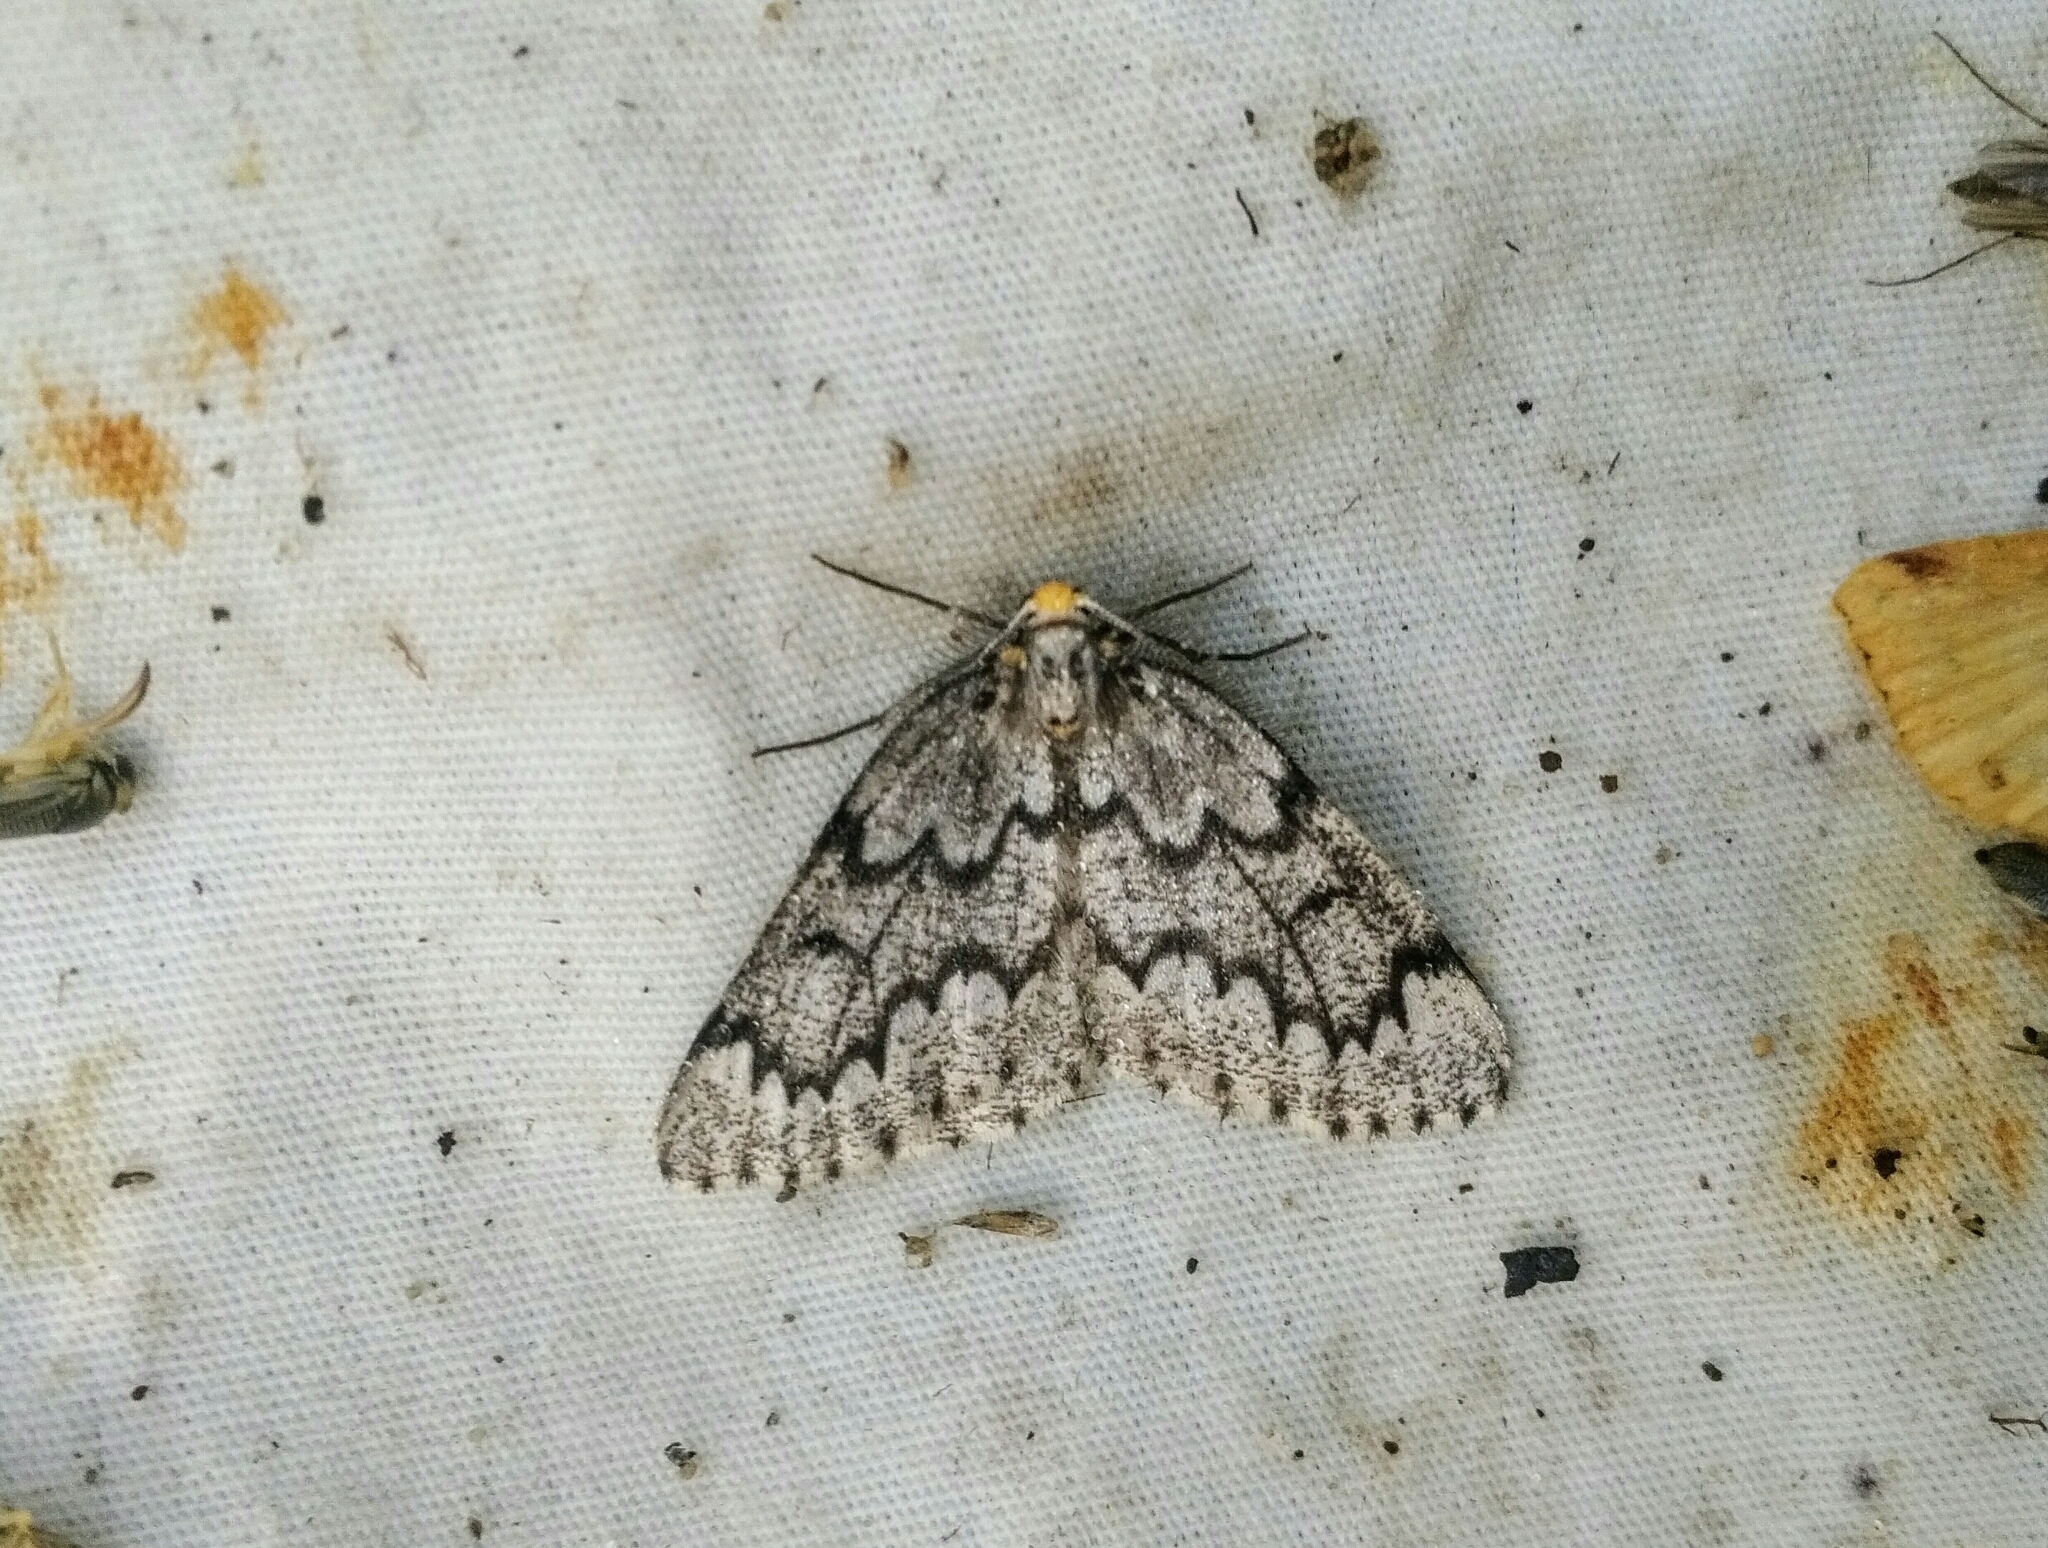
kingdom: Animalia
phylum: Arthropoda
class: Insecta
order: Lepidoptera
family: Geometridae
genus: Nepytia
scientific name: Nepytia canosaria
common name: False hemlock looper
